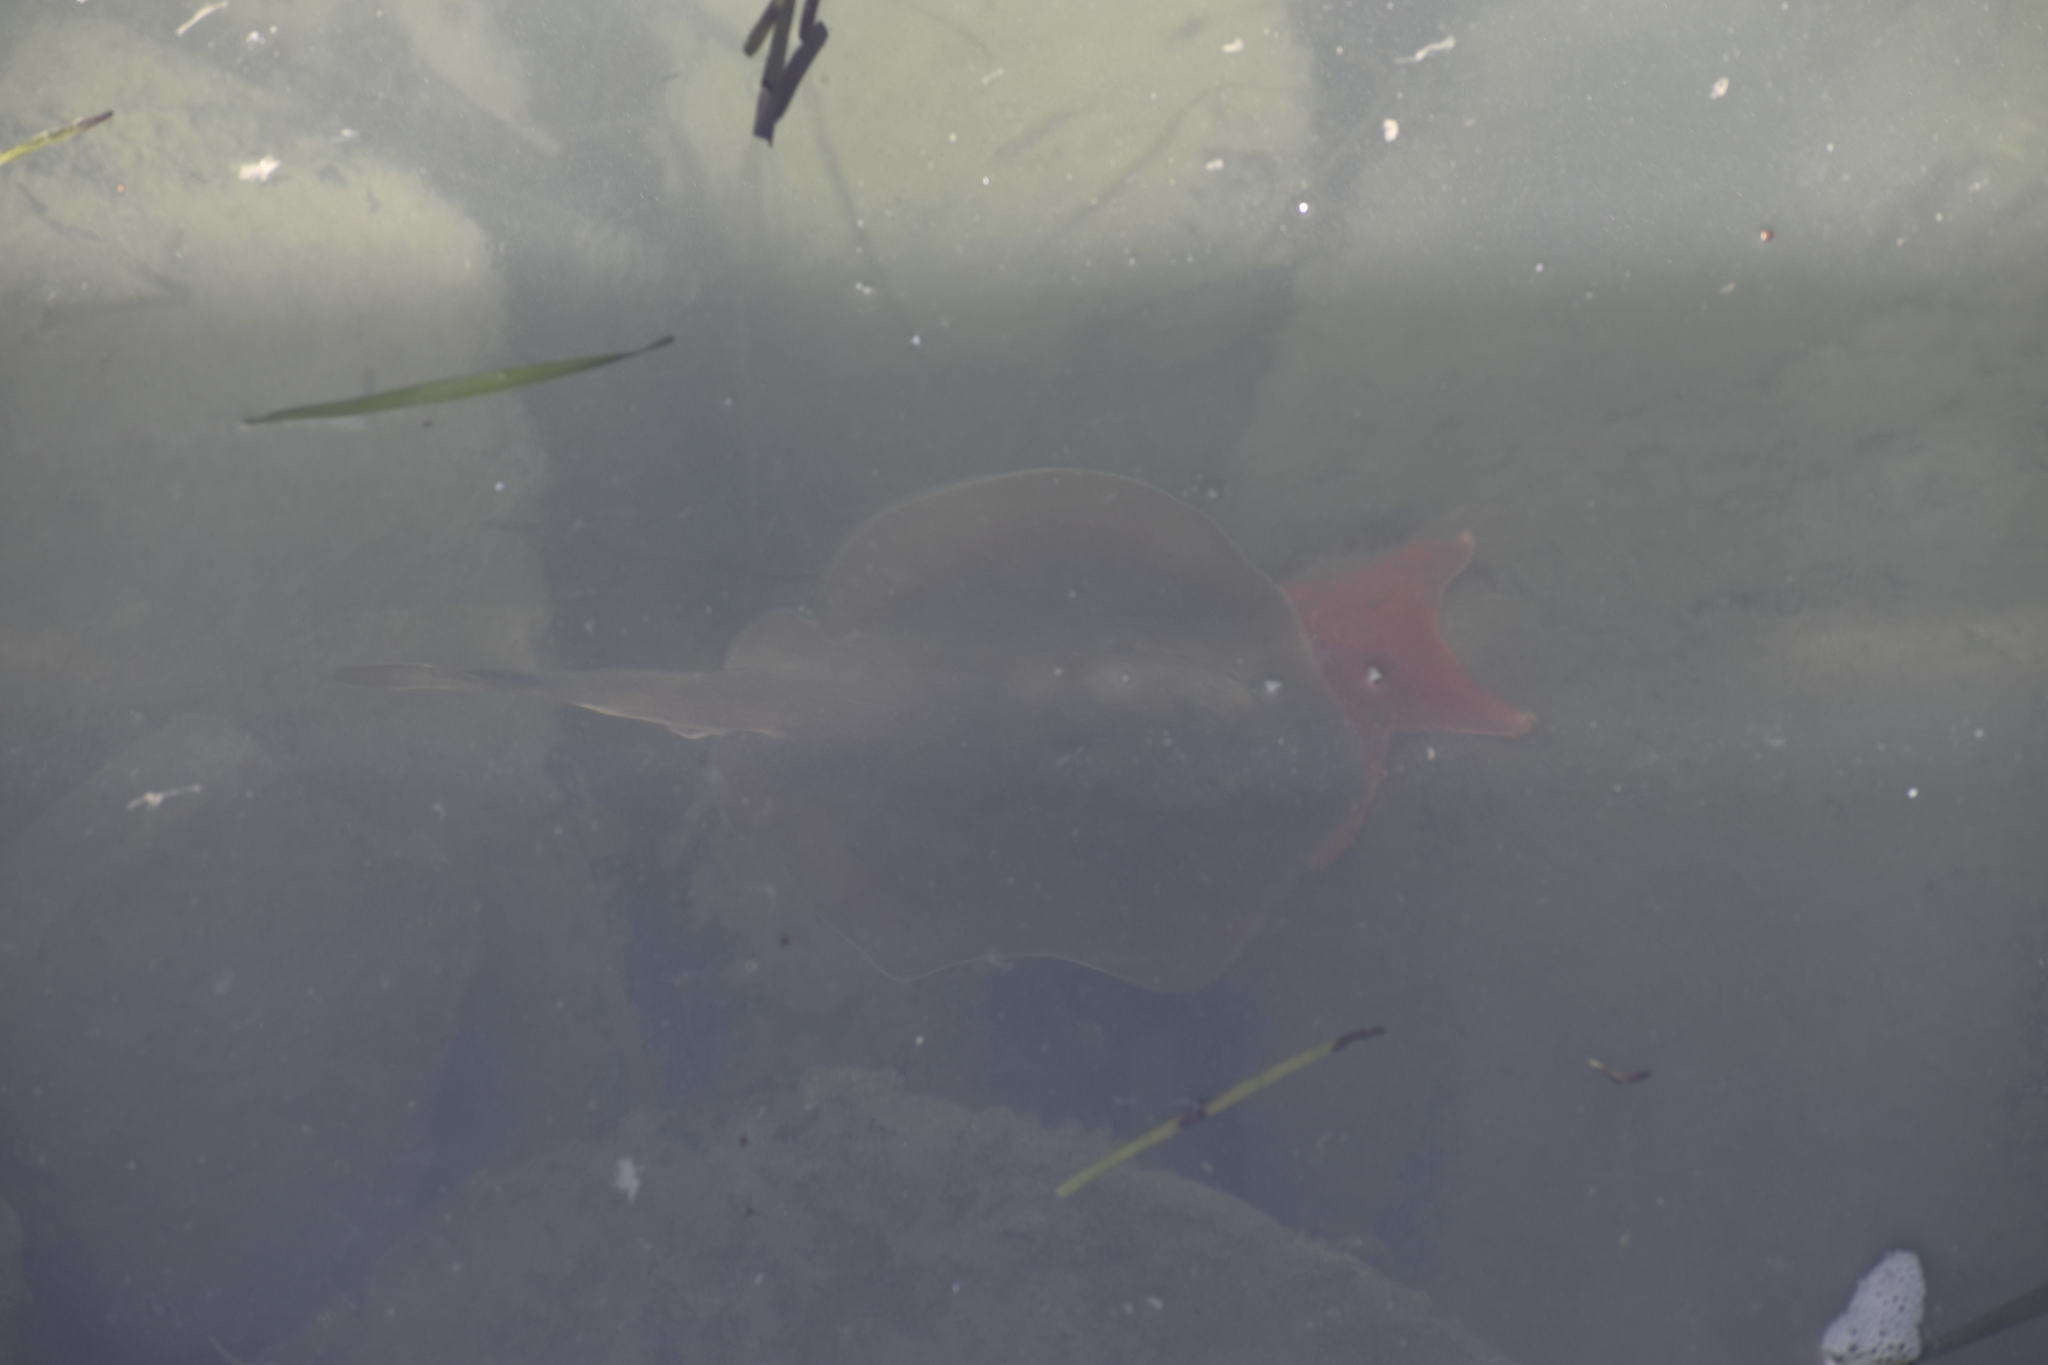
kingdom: Animalia
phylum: Chordata
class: Elasmobranchii
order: Myliobatiformes
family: Urolophidae
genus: Urolophus
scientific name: Urolophus halleri
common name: Round stingray
